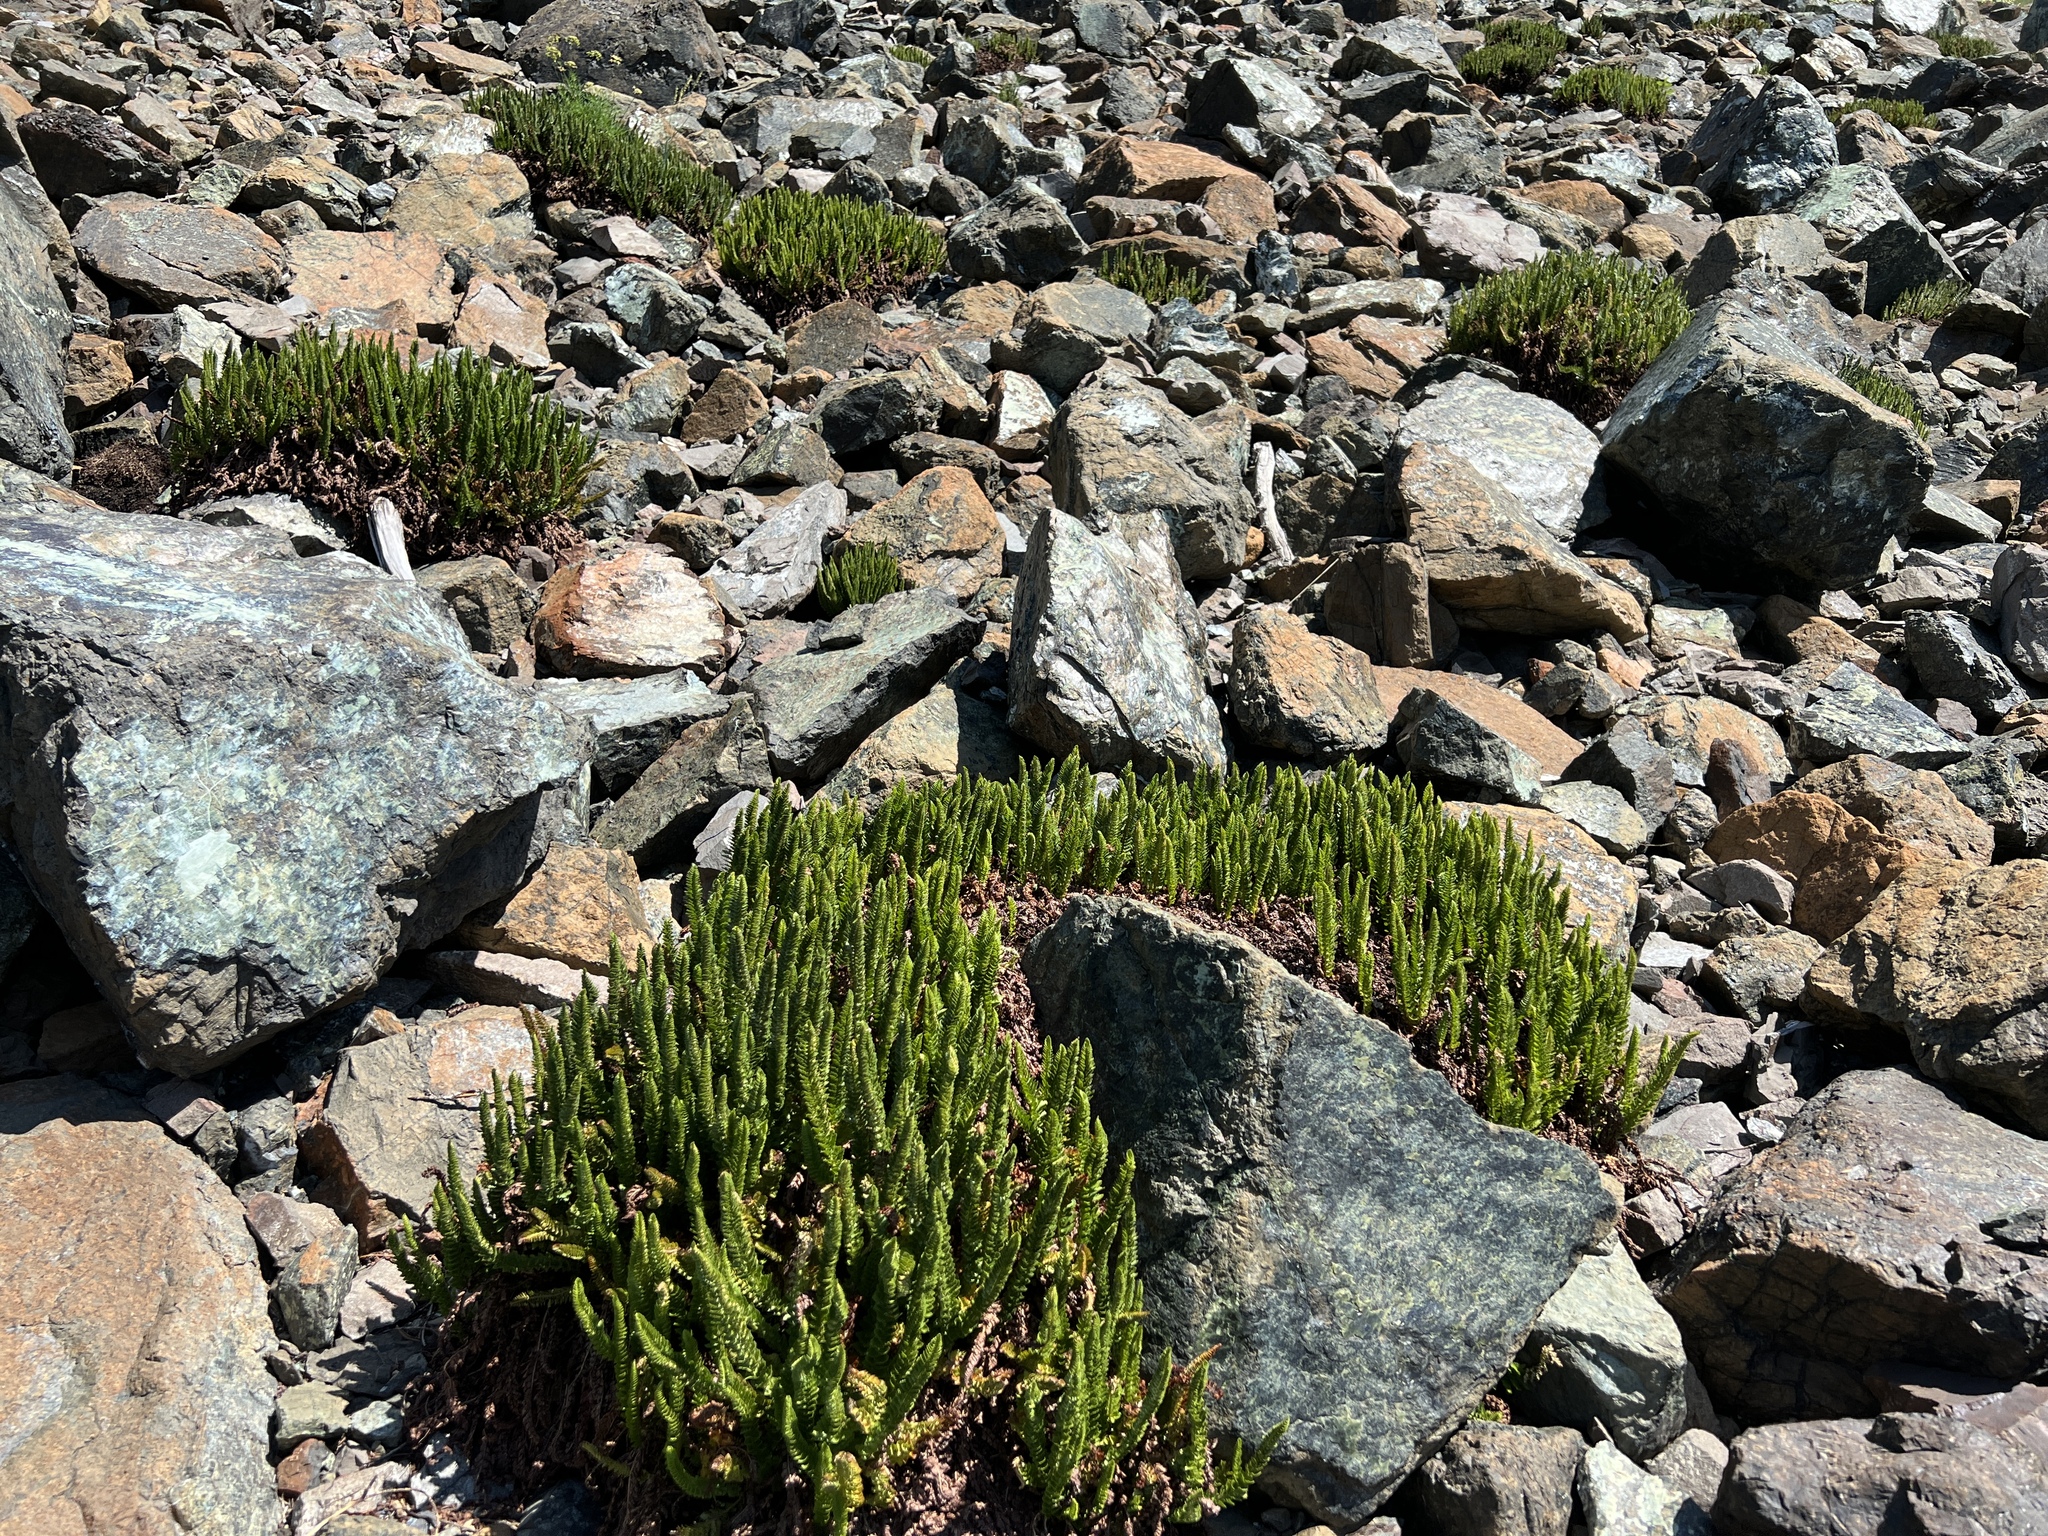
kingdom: Plantae
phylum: Tracheophyta
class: Polypodiopsida
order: Polypodiales
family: Dryopteridaceae
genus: Polystichum
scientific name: Polystichum lemmonii
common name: Lemmon's holly fern
